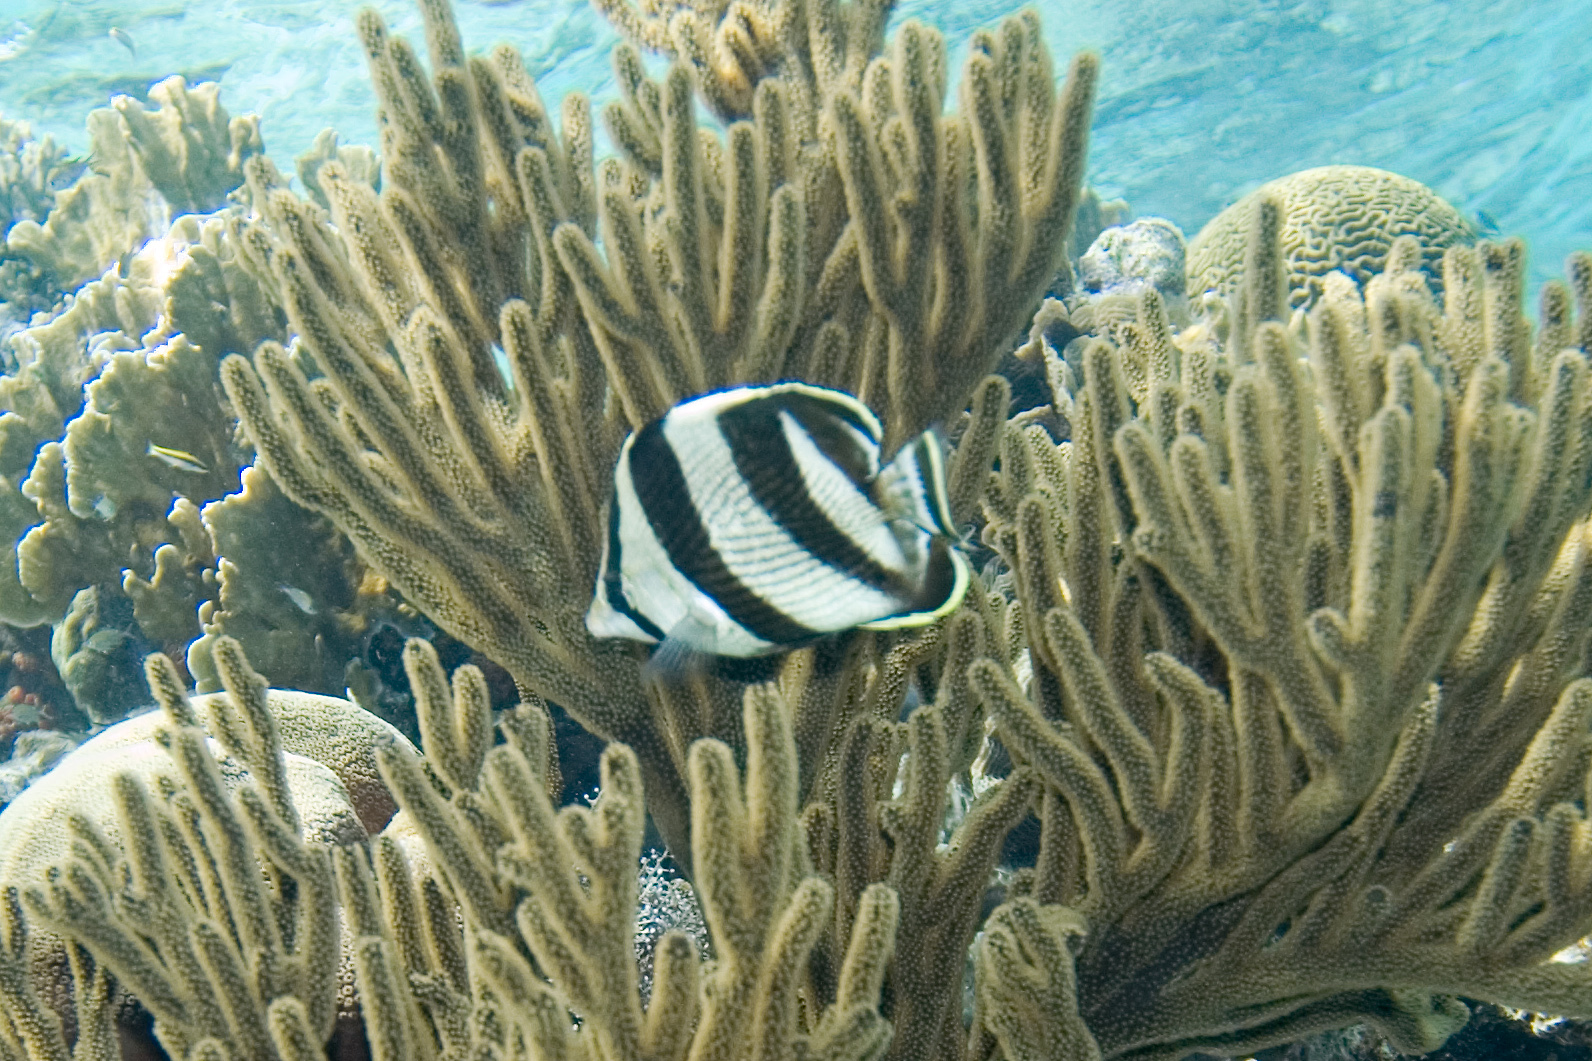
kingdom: Animalia
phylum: Chordata
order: Perciformes
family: Chaetodontidae
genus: Chaetodon
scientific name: Chaetodon striatus
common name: Banded butterflyfish
